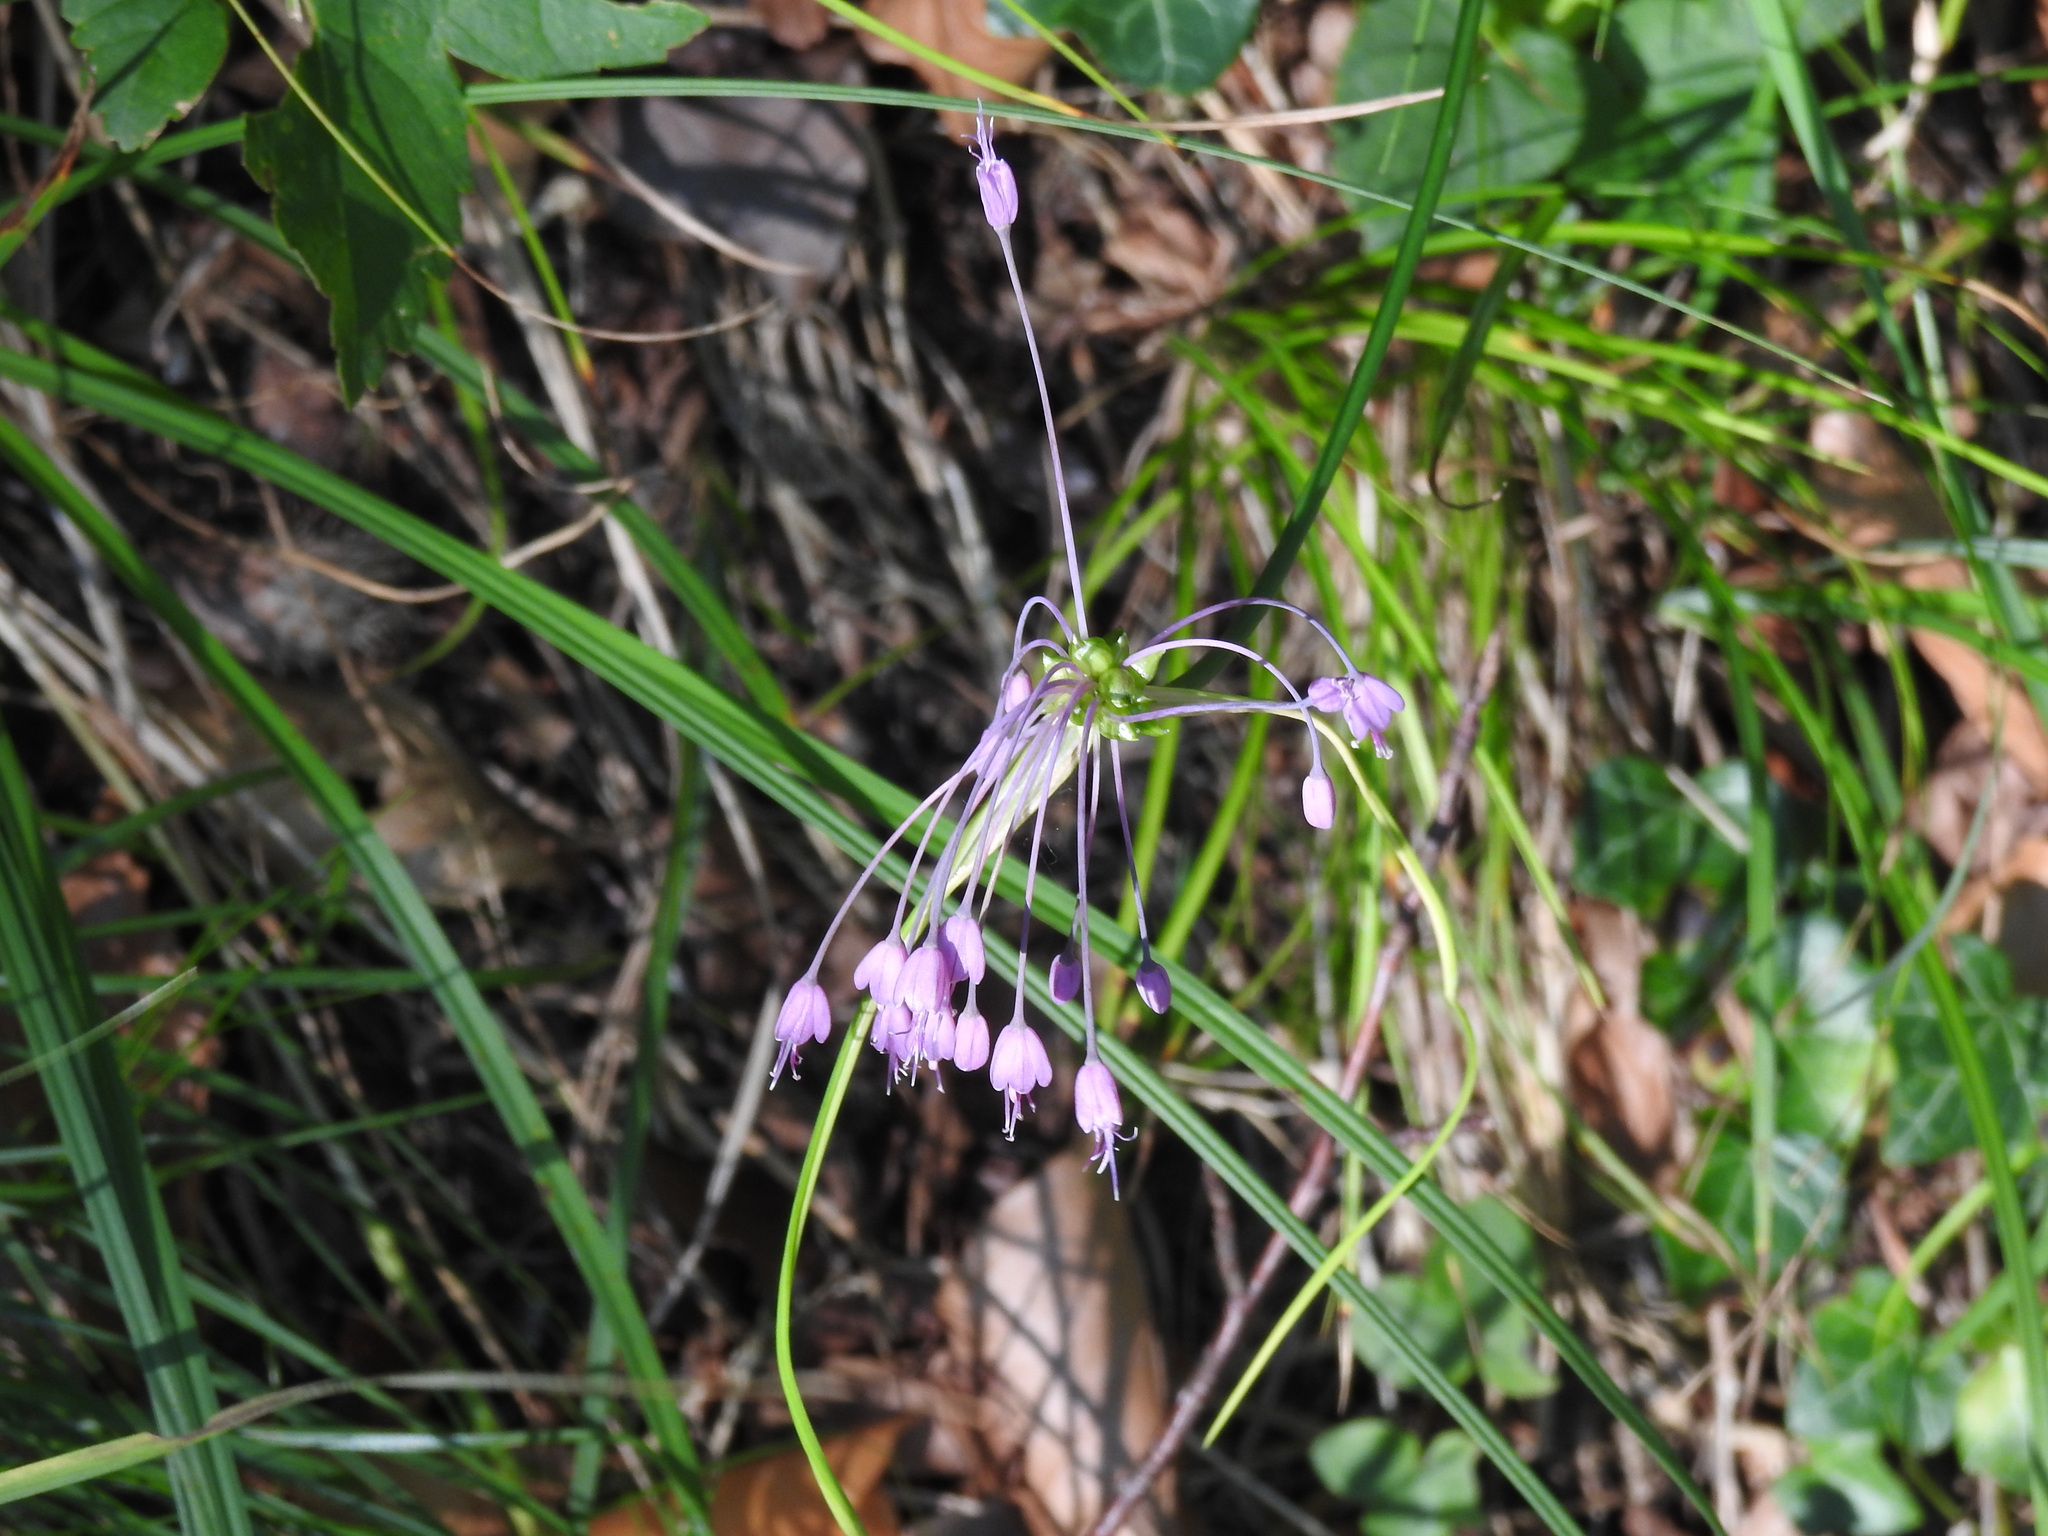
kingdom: Plantae
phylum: Tracheophyta
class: Liliopsida
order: Asparagales
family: Amaryllidaceae
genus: Allium
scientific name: Allium carinatum
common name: Keeled garlic
